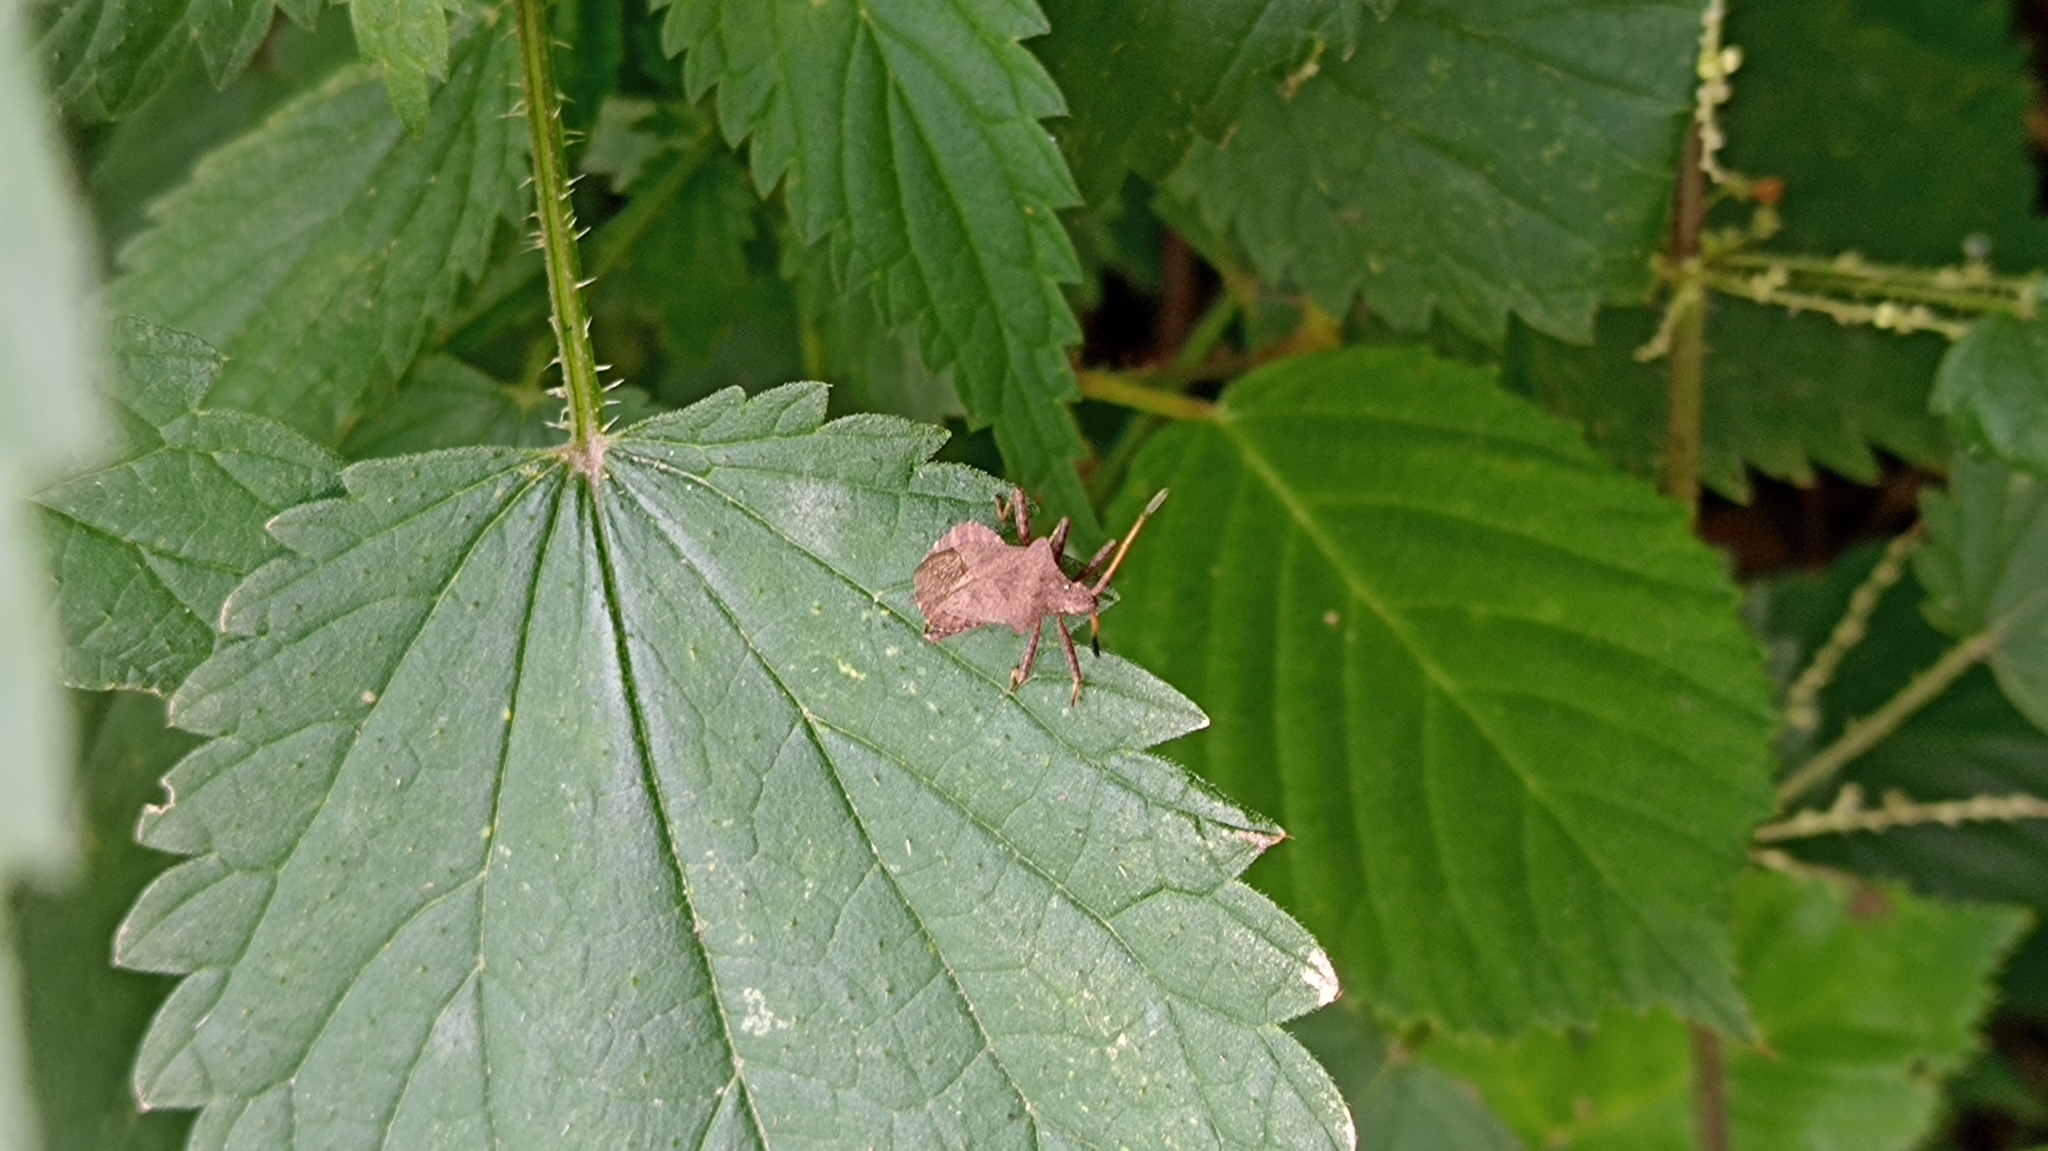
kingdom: Animalia
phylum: Arthropoda
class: Insecta
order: Hemiptera
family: Coreidae
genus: Coreus
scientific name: Coreus marginatus
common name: Dock bug
